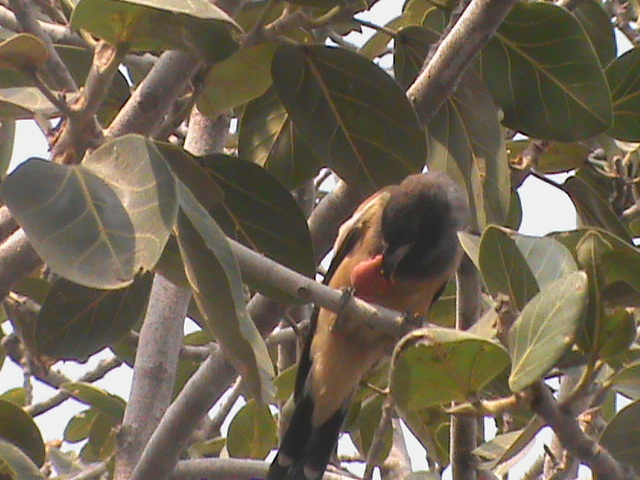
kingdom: Animalia
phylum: Chordata
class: Aves
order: Passeriformes
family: Corvidae
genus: Dendrocitta
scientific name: Dendrocitta vagabunda
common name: Rufous treepie
